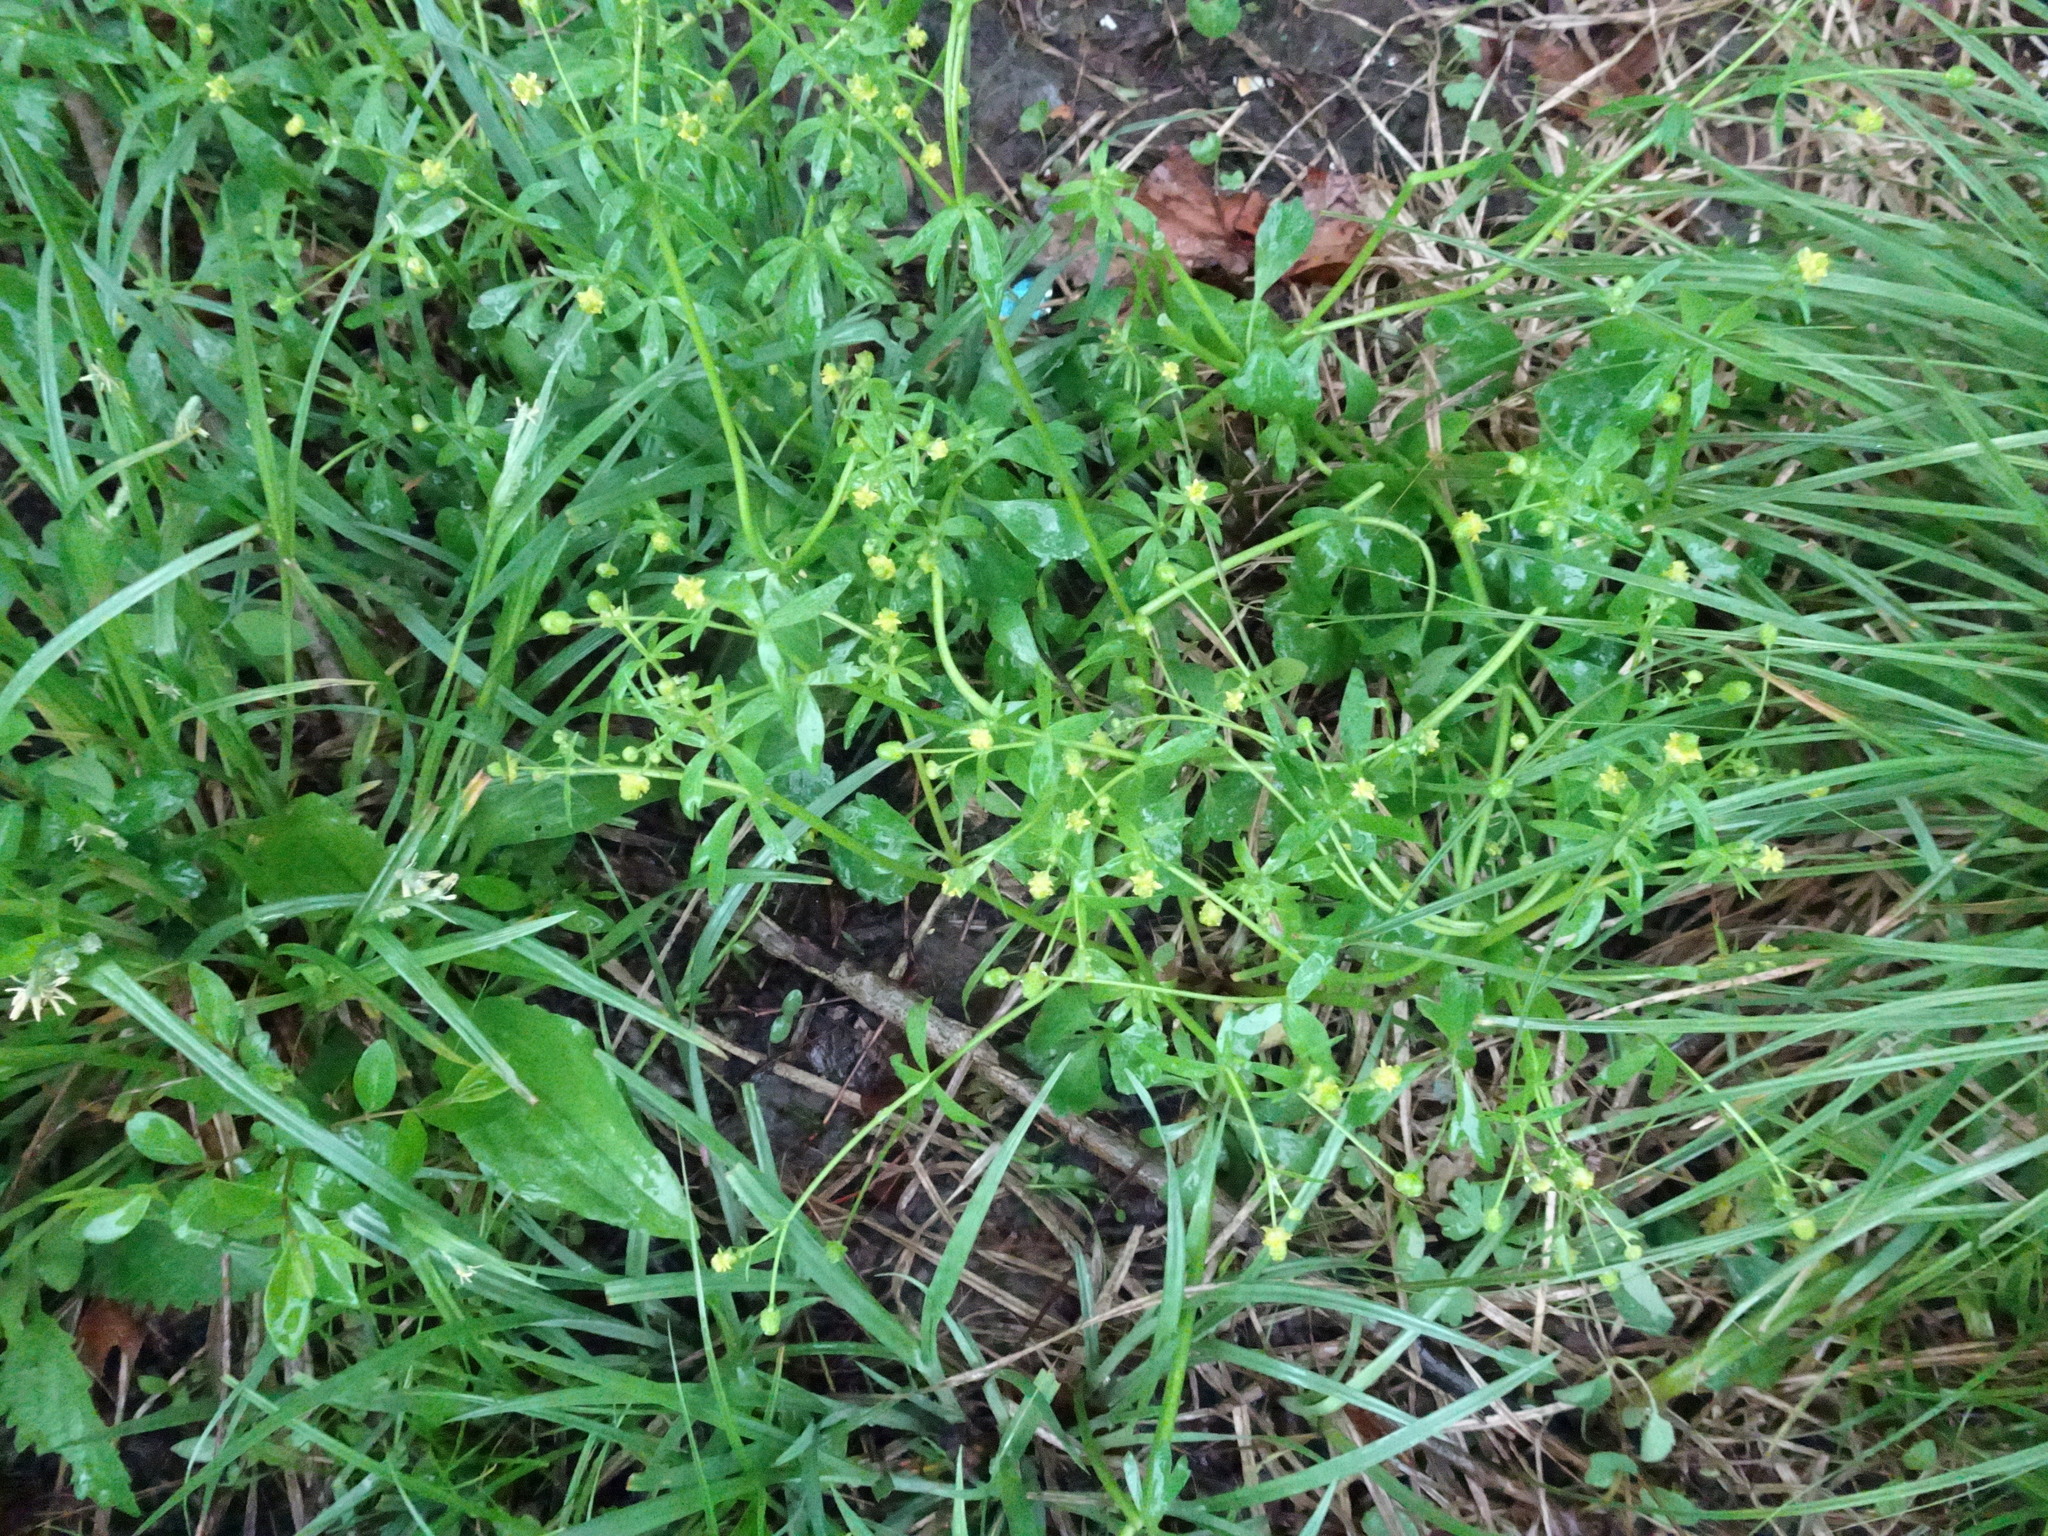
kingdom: Plantae
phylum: Tracheophyta
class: Magnoliopsida
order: Ranunculales
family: Ranunculaceae
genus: Ranunculus
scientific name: Ranunculus abortivus
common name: Early wood buttercup
